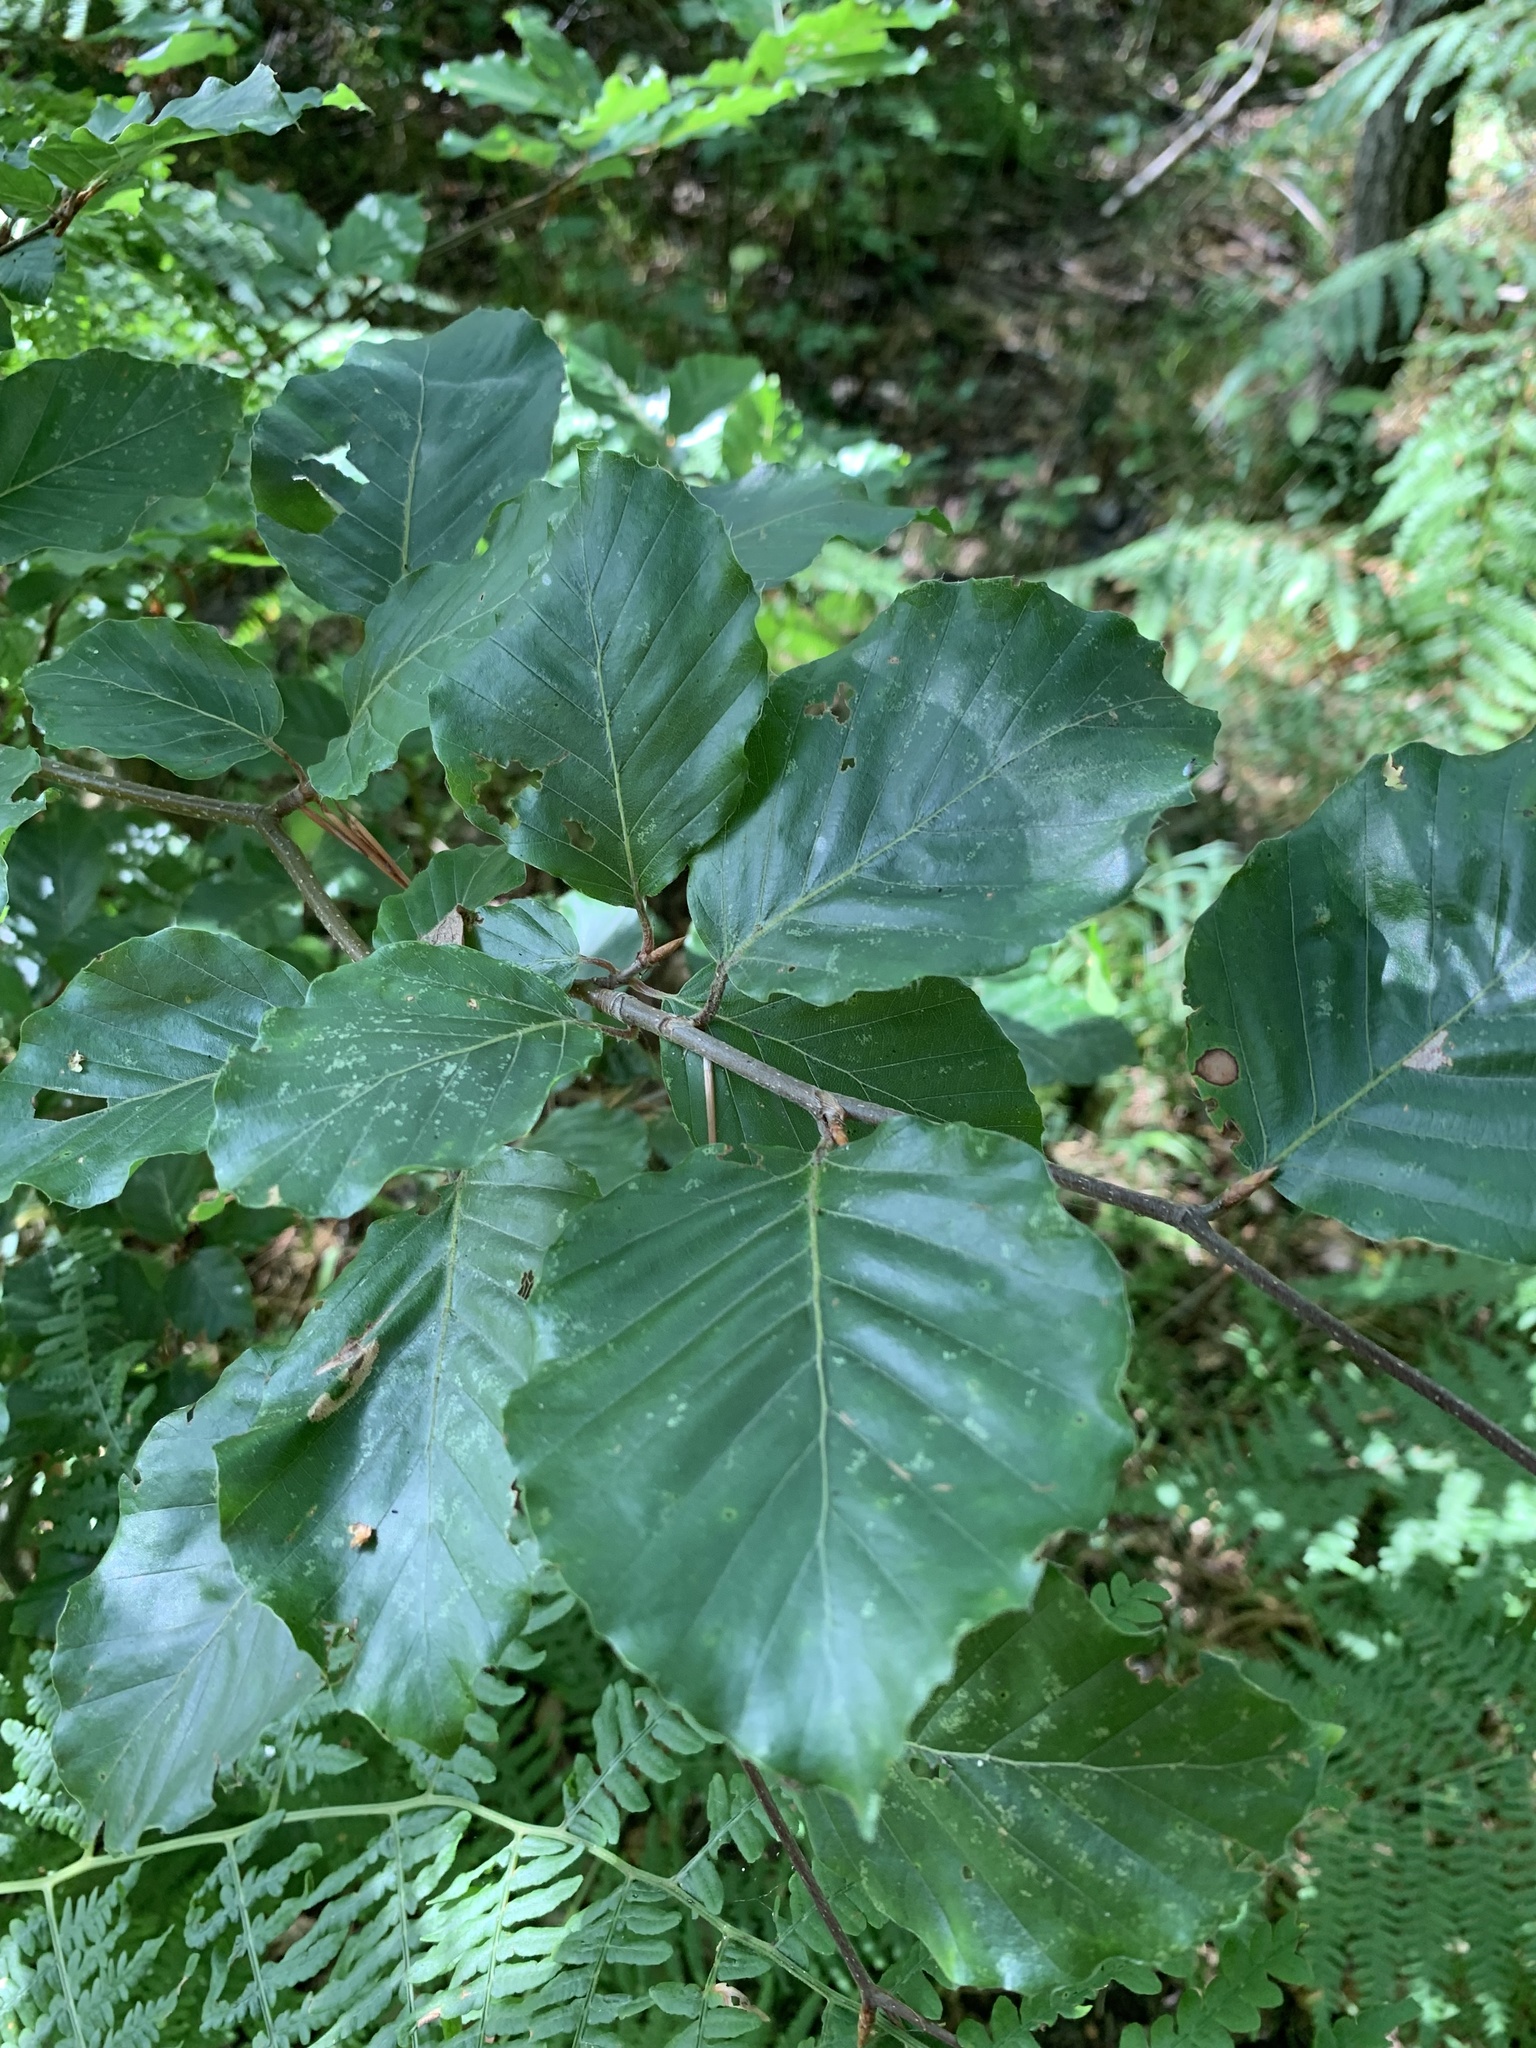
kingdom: Plantae
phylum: Tracheophyta
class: Magnoliopsida
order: Fagales
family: Fagaceae
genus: Fagus
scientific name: Fagus sylvatica
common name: Beech
